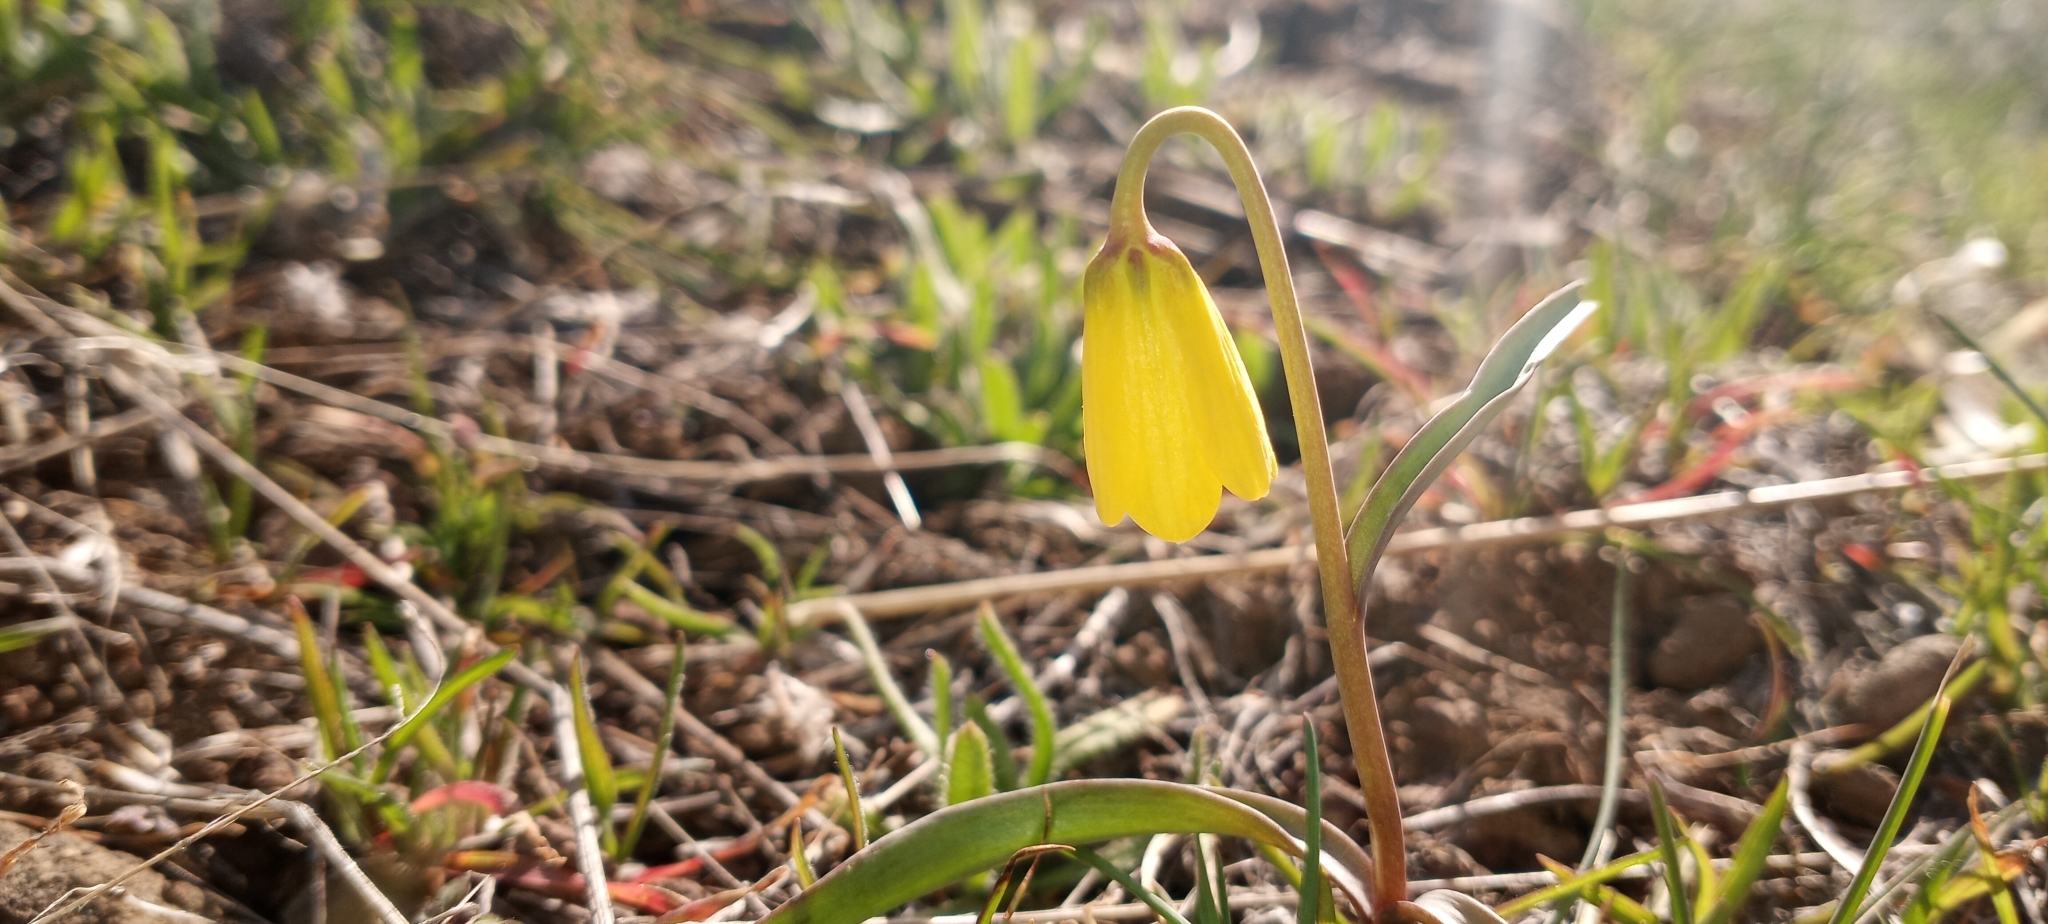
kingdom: Plantae
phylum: Tracheophyta
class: Liliopsida
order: Liliales
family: Liliaceae
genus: Fritillaria
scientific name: Fritillaria pudica
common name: Yellow fritillary
